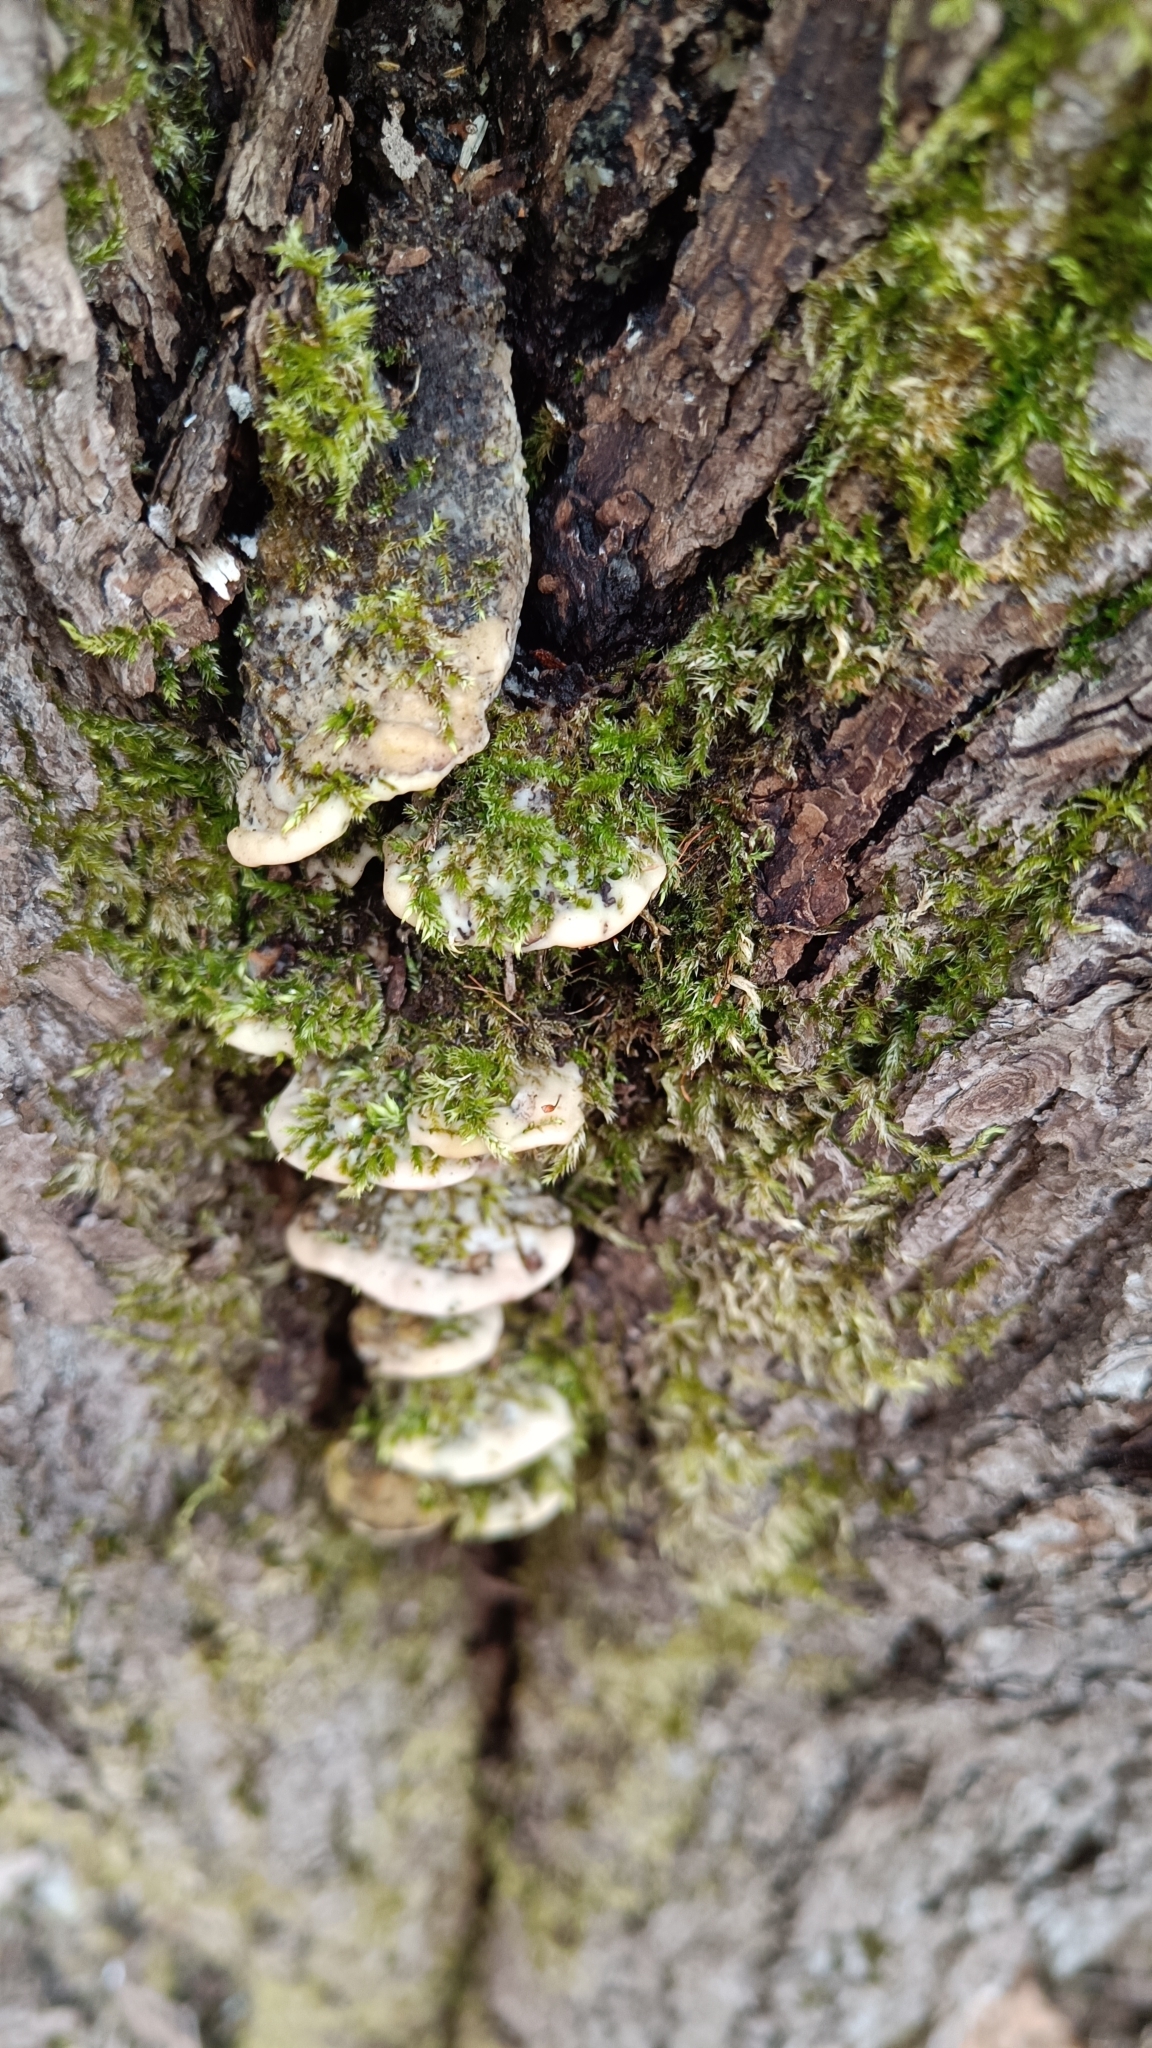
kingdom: Fungi
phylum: Basidiomycota
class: Agaricomycetes
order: Hymenochaetales
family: Oxyporaceae
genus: Oxyporus
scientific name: Oxyporus populinus
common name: Poplar bracket
